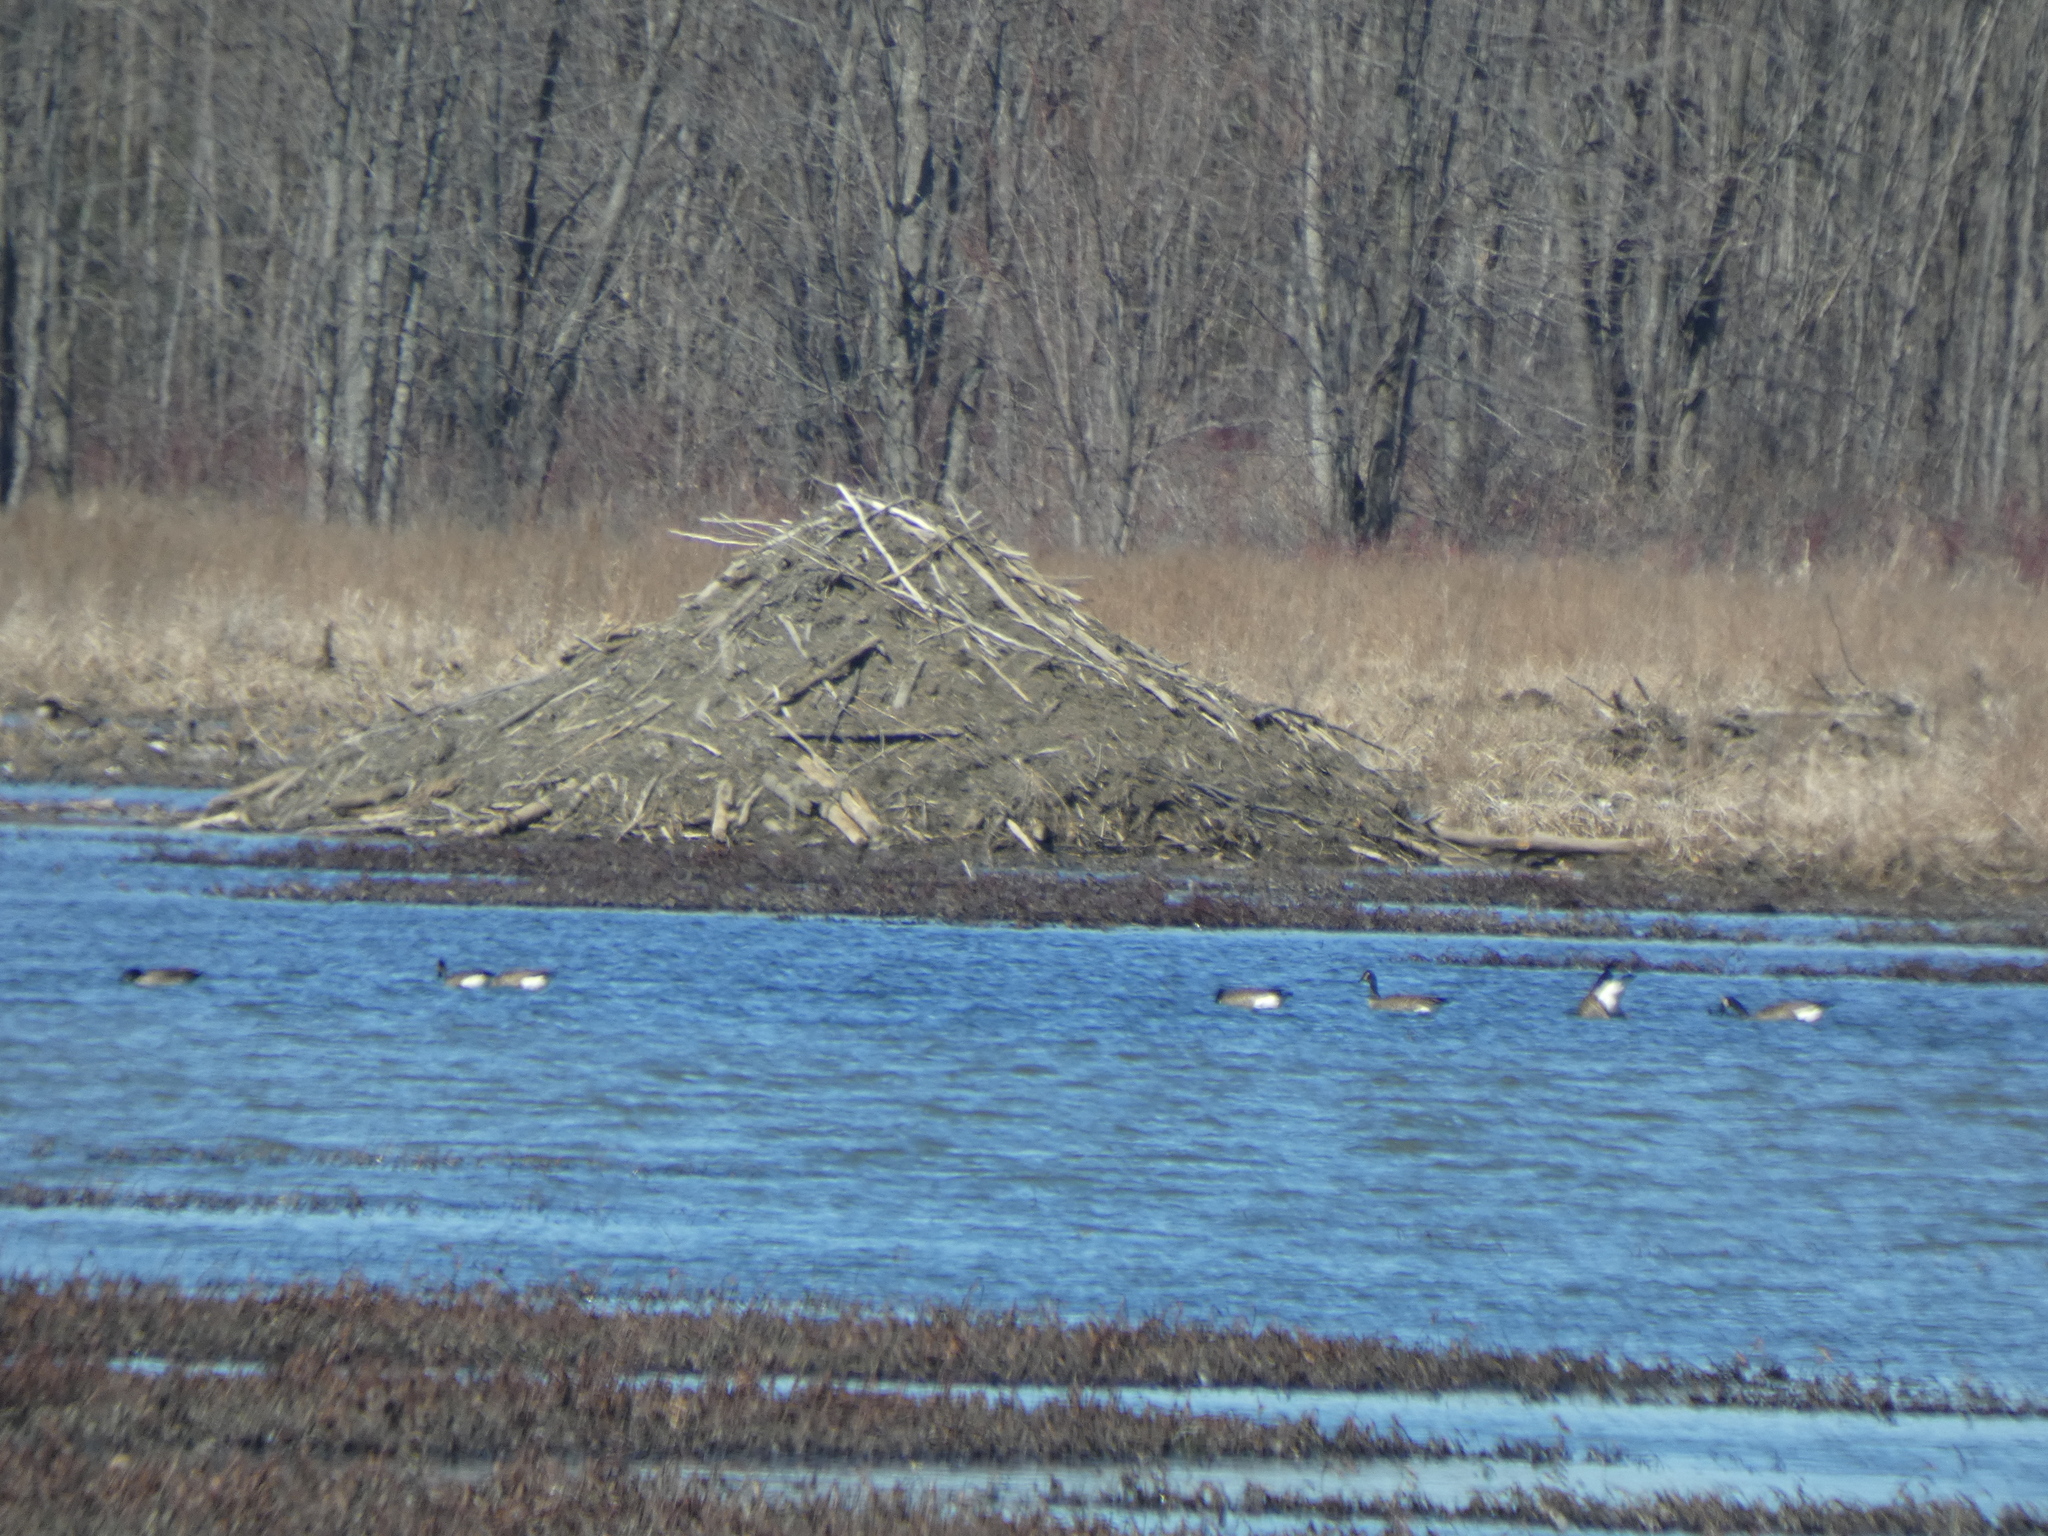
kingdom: Animalia
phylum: Chordata
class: Mammalia
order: Rodentia
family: Castoridae
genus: Castor
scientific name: Castor canadensis
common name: American beaver
